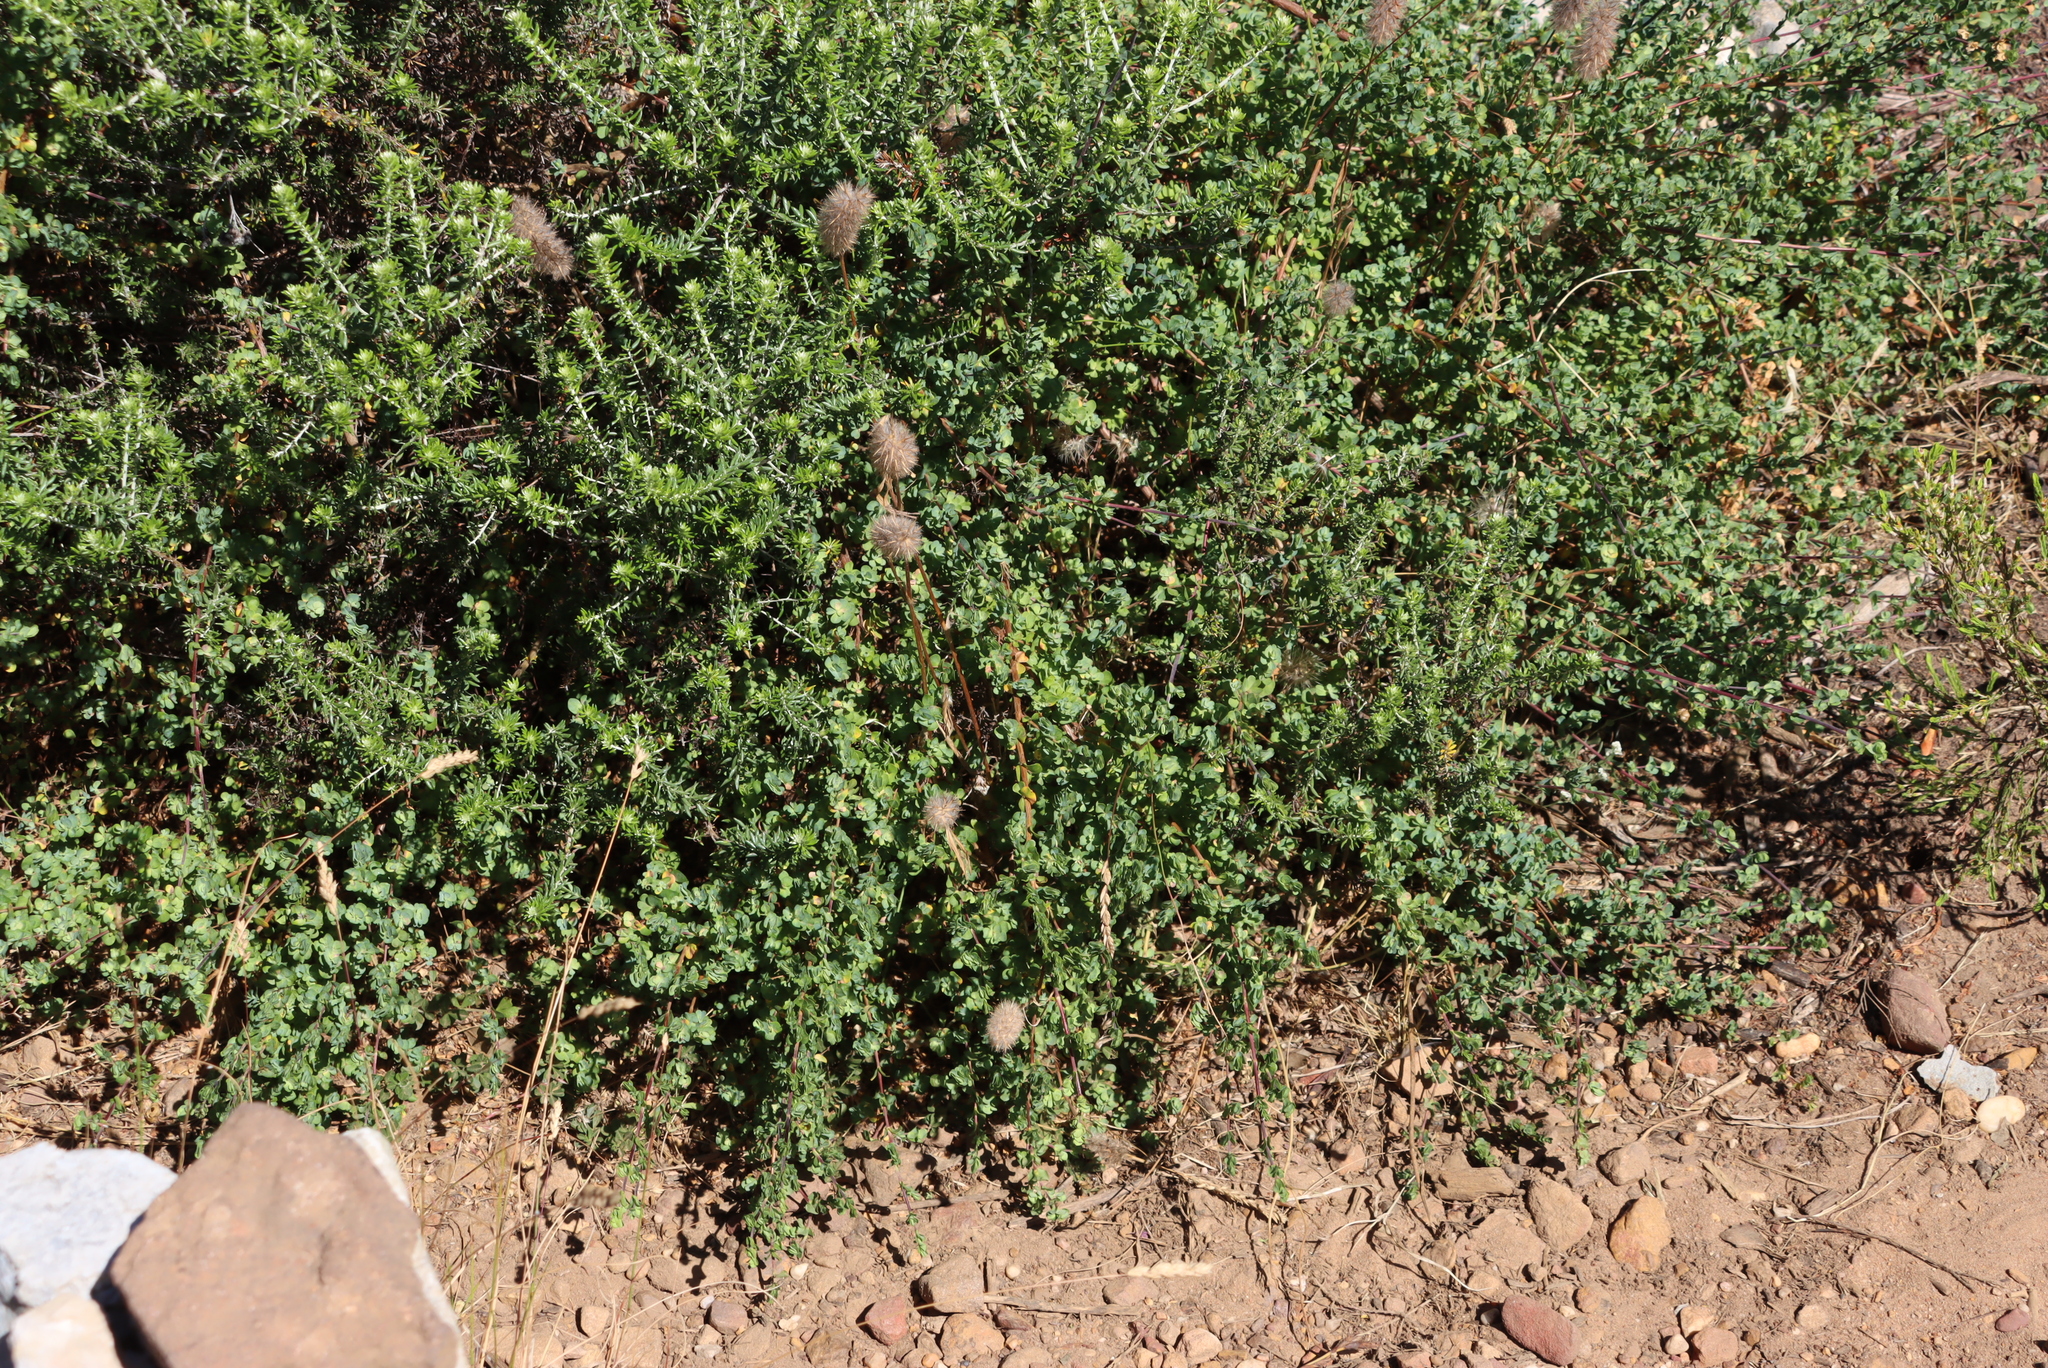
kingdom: Plantae
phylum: Tracheophyta
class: Magnoliopsida
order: Rosales
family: Rosaceae
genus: Cliffortia
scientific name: Cliffortia obcordata
